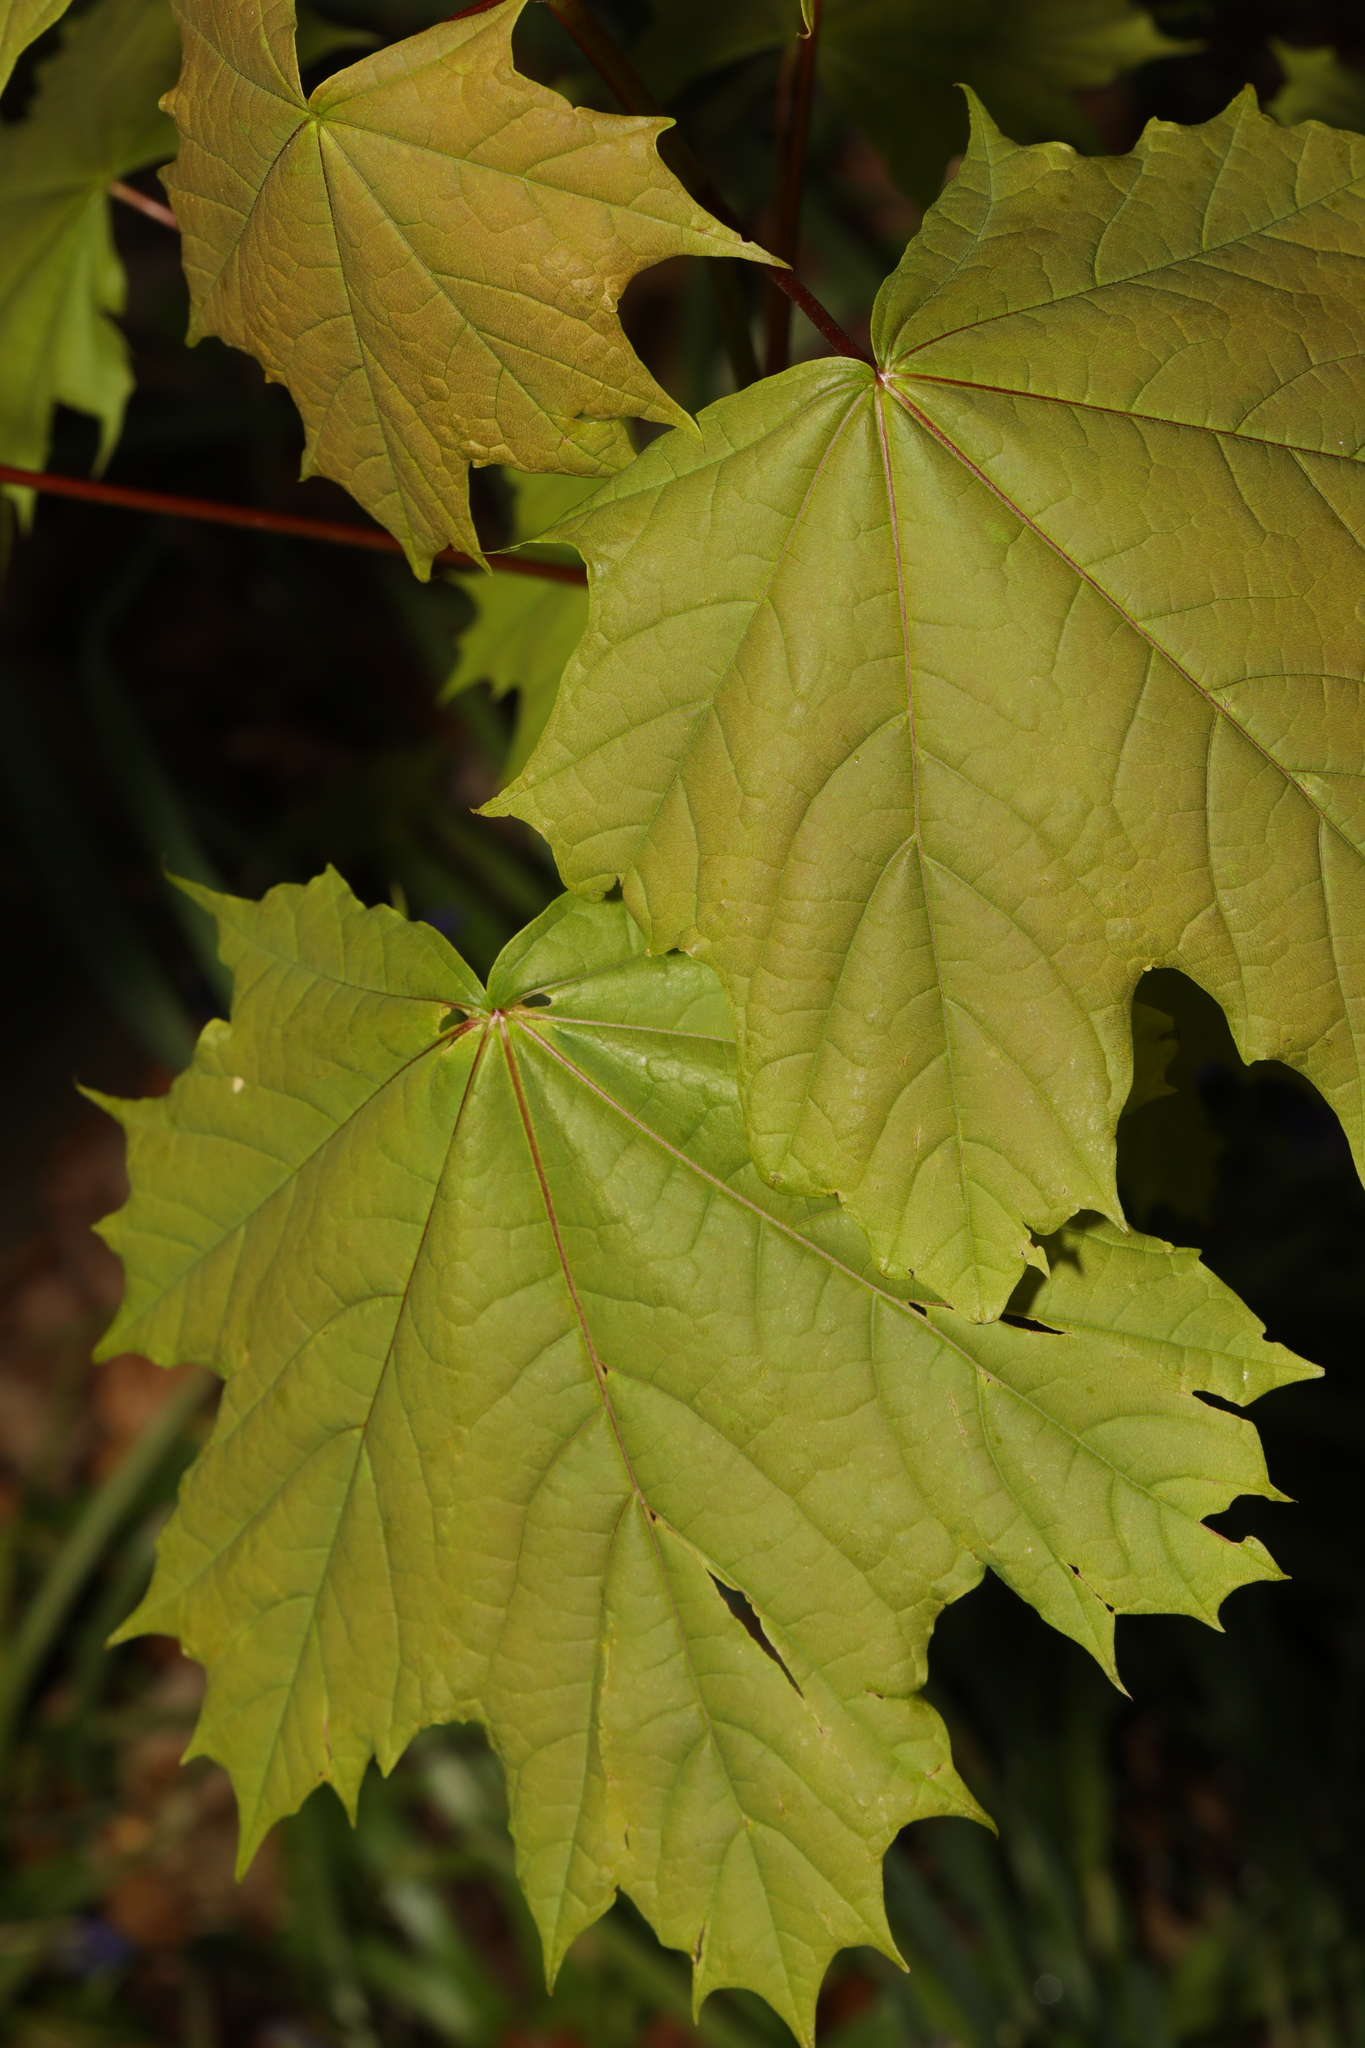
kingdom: Plantae
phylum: Tracheophyta
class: Magnoliopsida
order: Sapindales
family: Sapindaceae
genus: Acer
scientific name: Acer platanoides
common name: Norway maple
